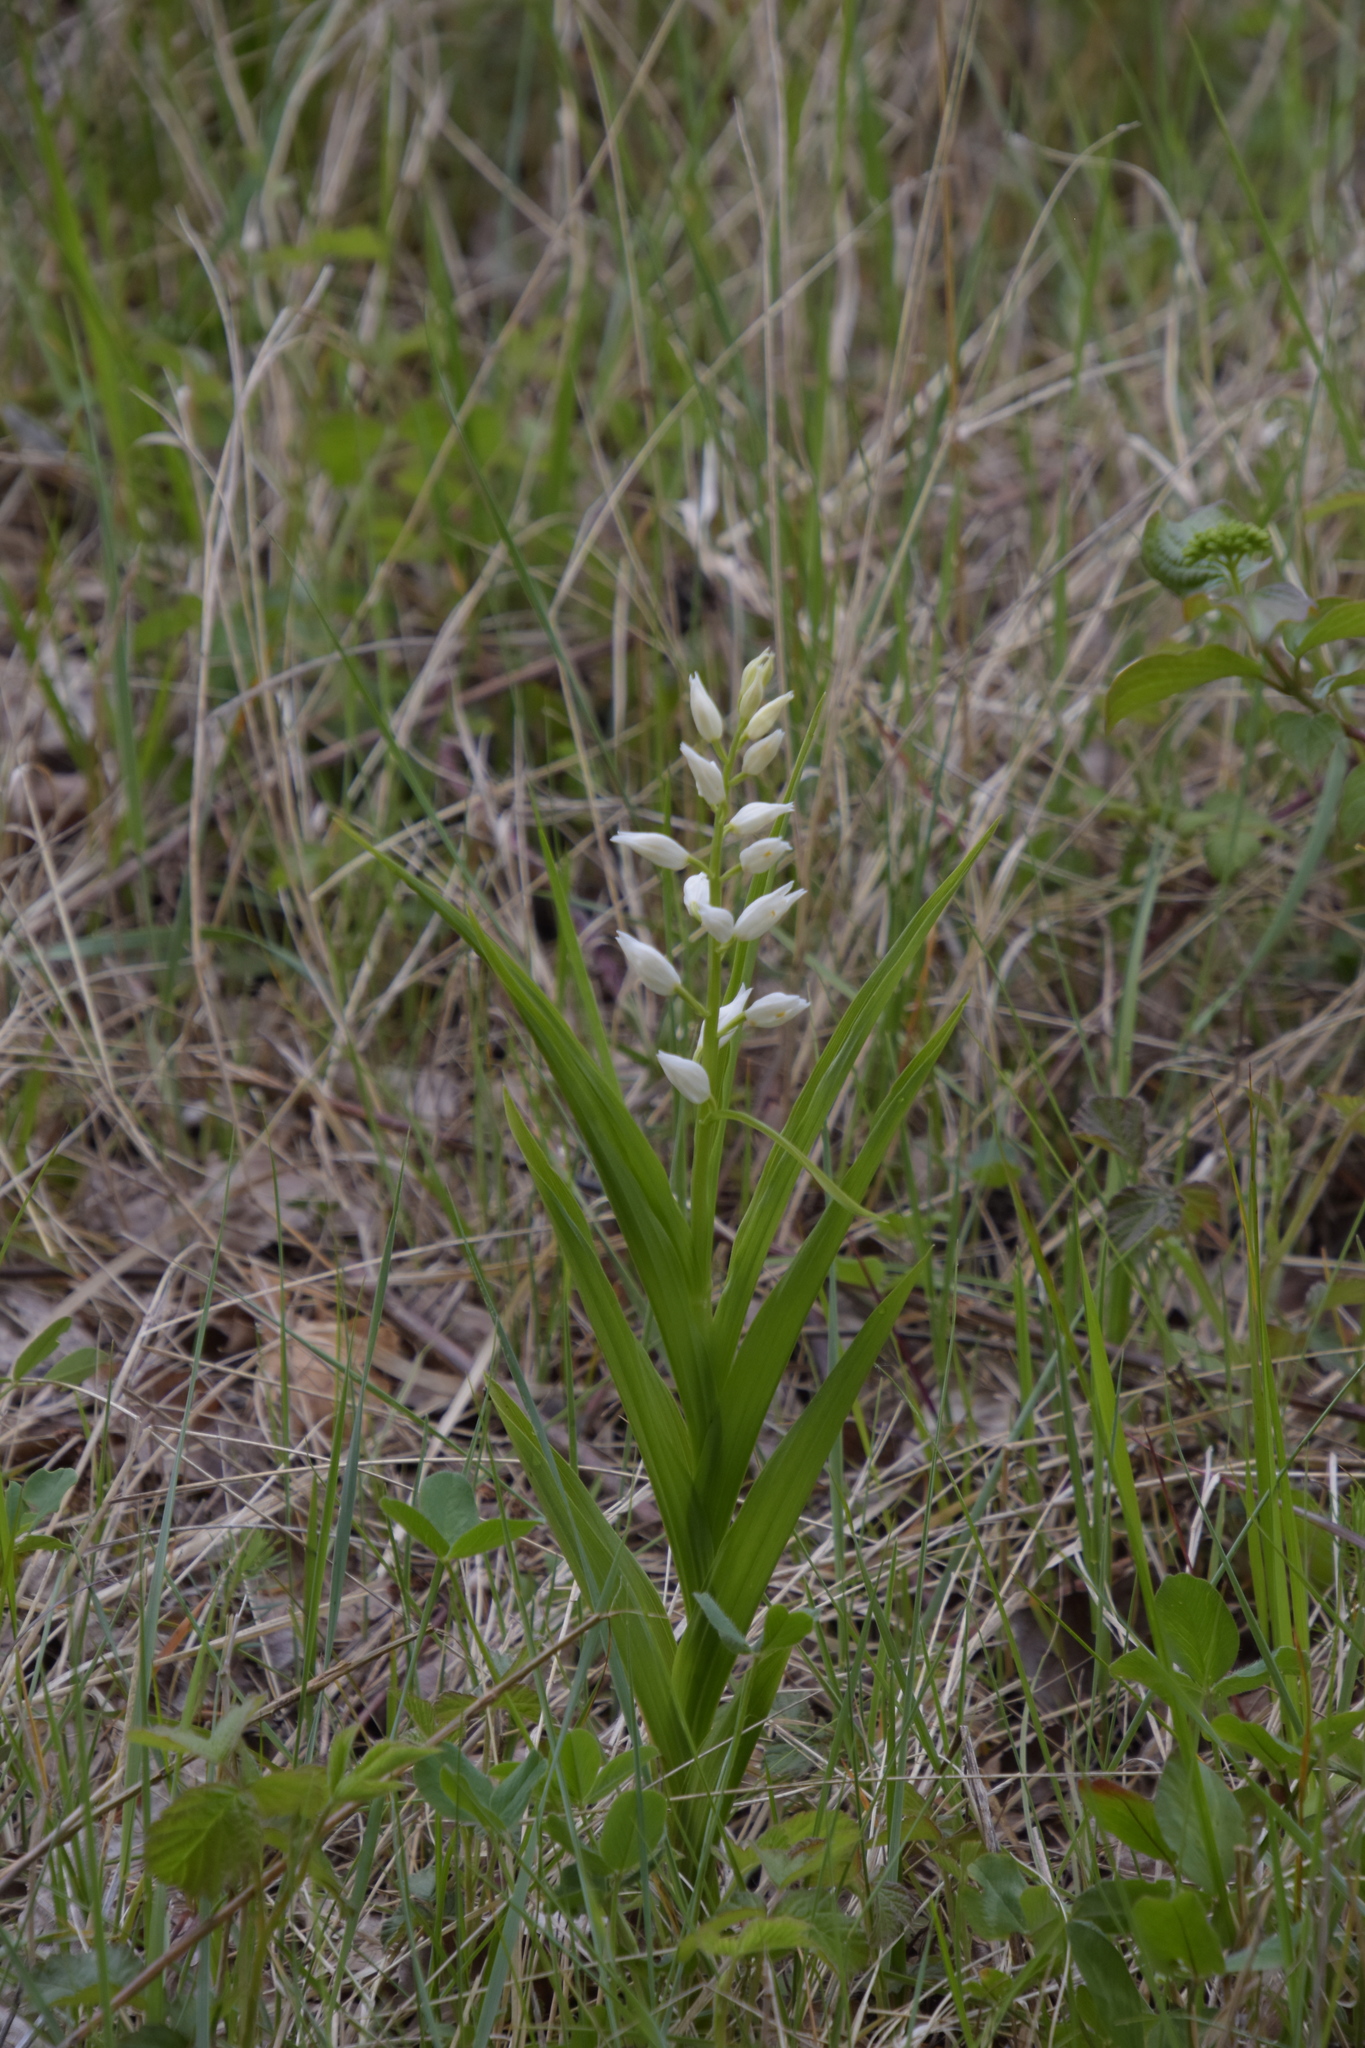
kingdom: Plantae
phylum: Tracheophyta
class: Liliopsida
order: Asparagales
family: Orchidaceae
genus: Cephalanthera
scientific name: Cephalanthera longifolia
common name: Narrow-leaved helleborine
